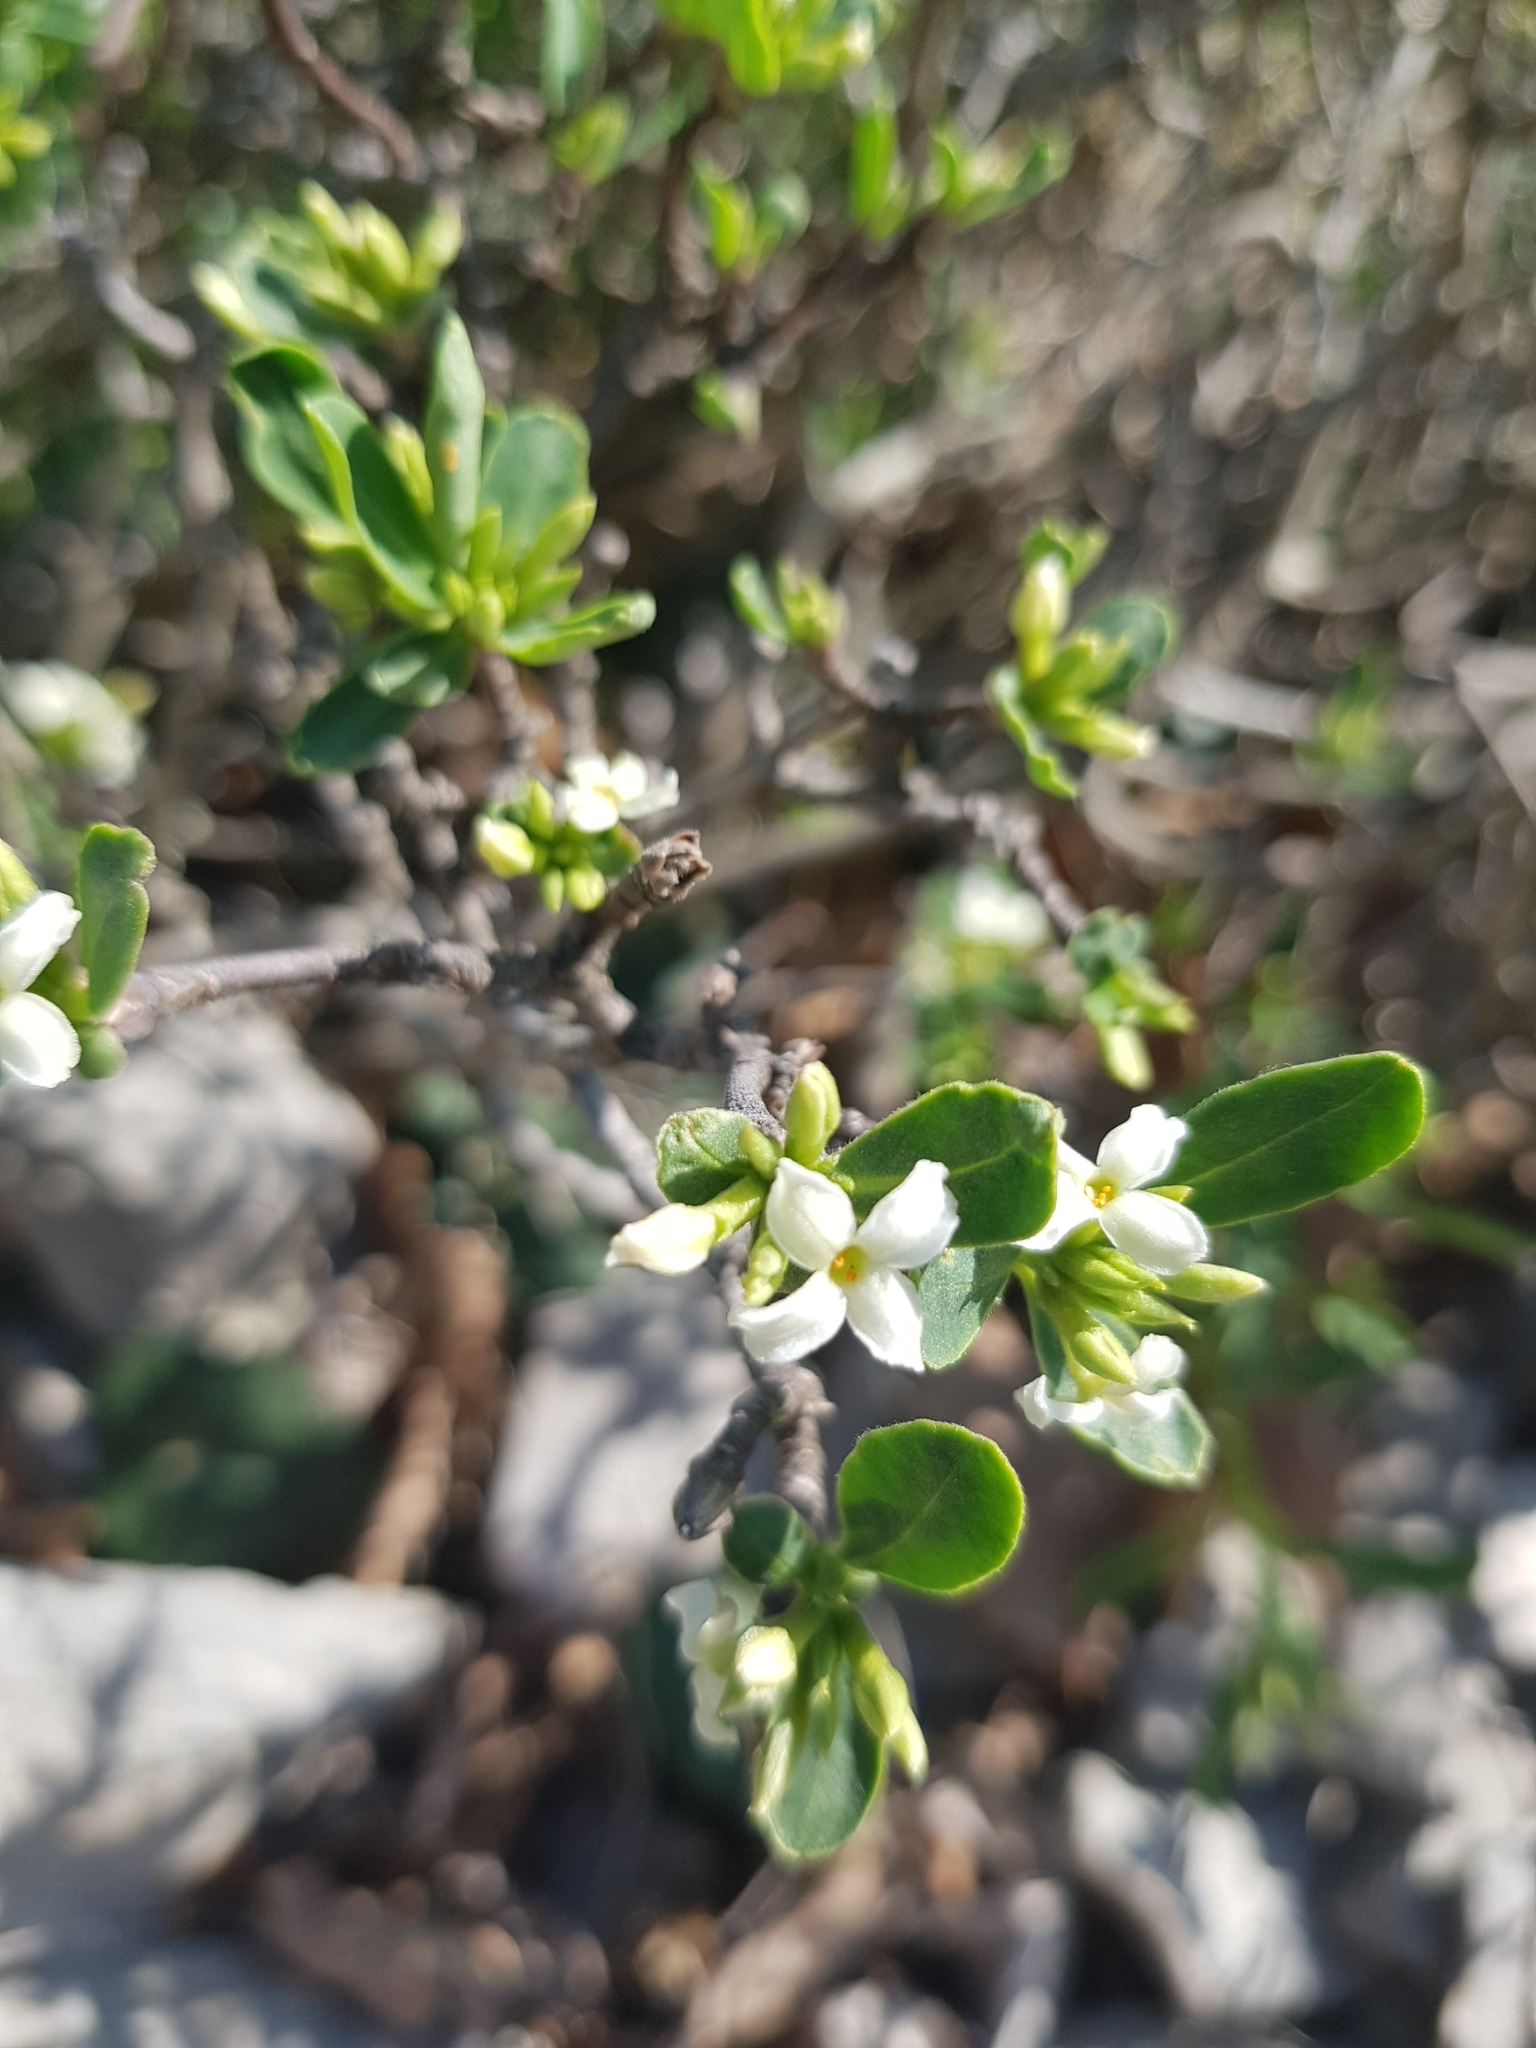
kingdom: Plantae
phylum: Tracheophyta
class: Magnoliopsida
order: Malvales
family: Thymelaeaceae
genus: Daphne
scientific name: Daphne alpina
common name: Alpine daphne
